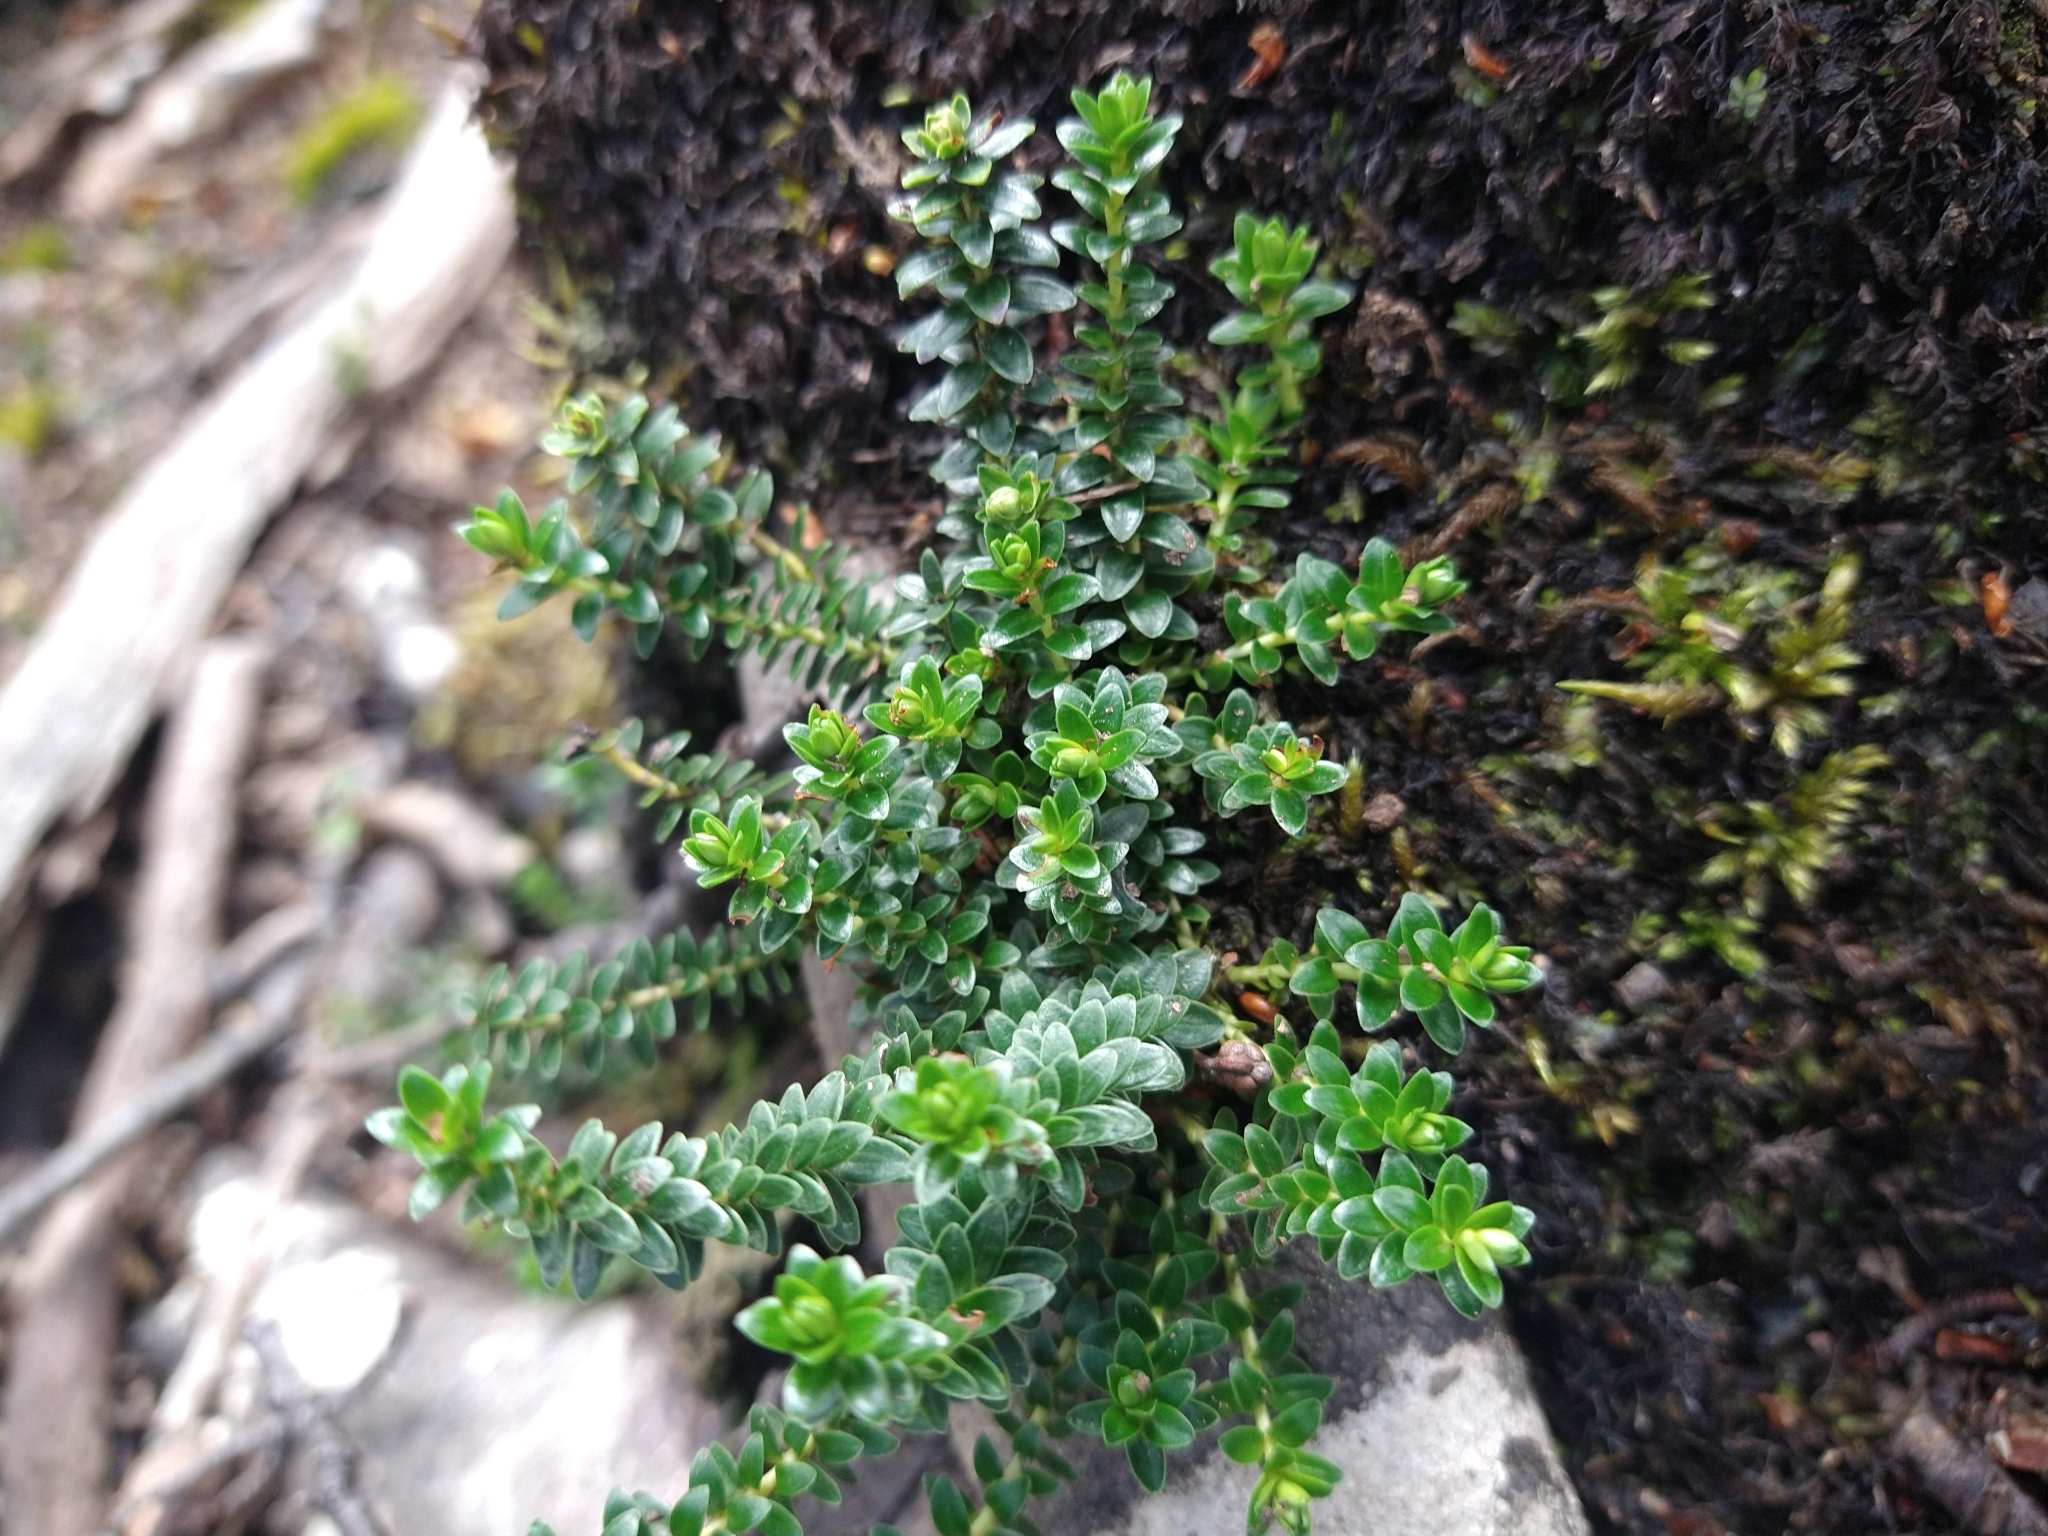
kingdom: Plantae
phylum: Tracheophyta
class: Magnoliopsida
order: Ericales
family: Ericaceae
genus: Gaultheria
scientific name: Gaultheria pumila
